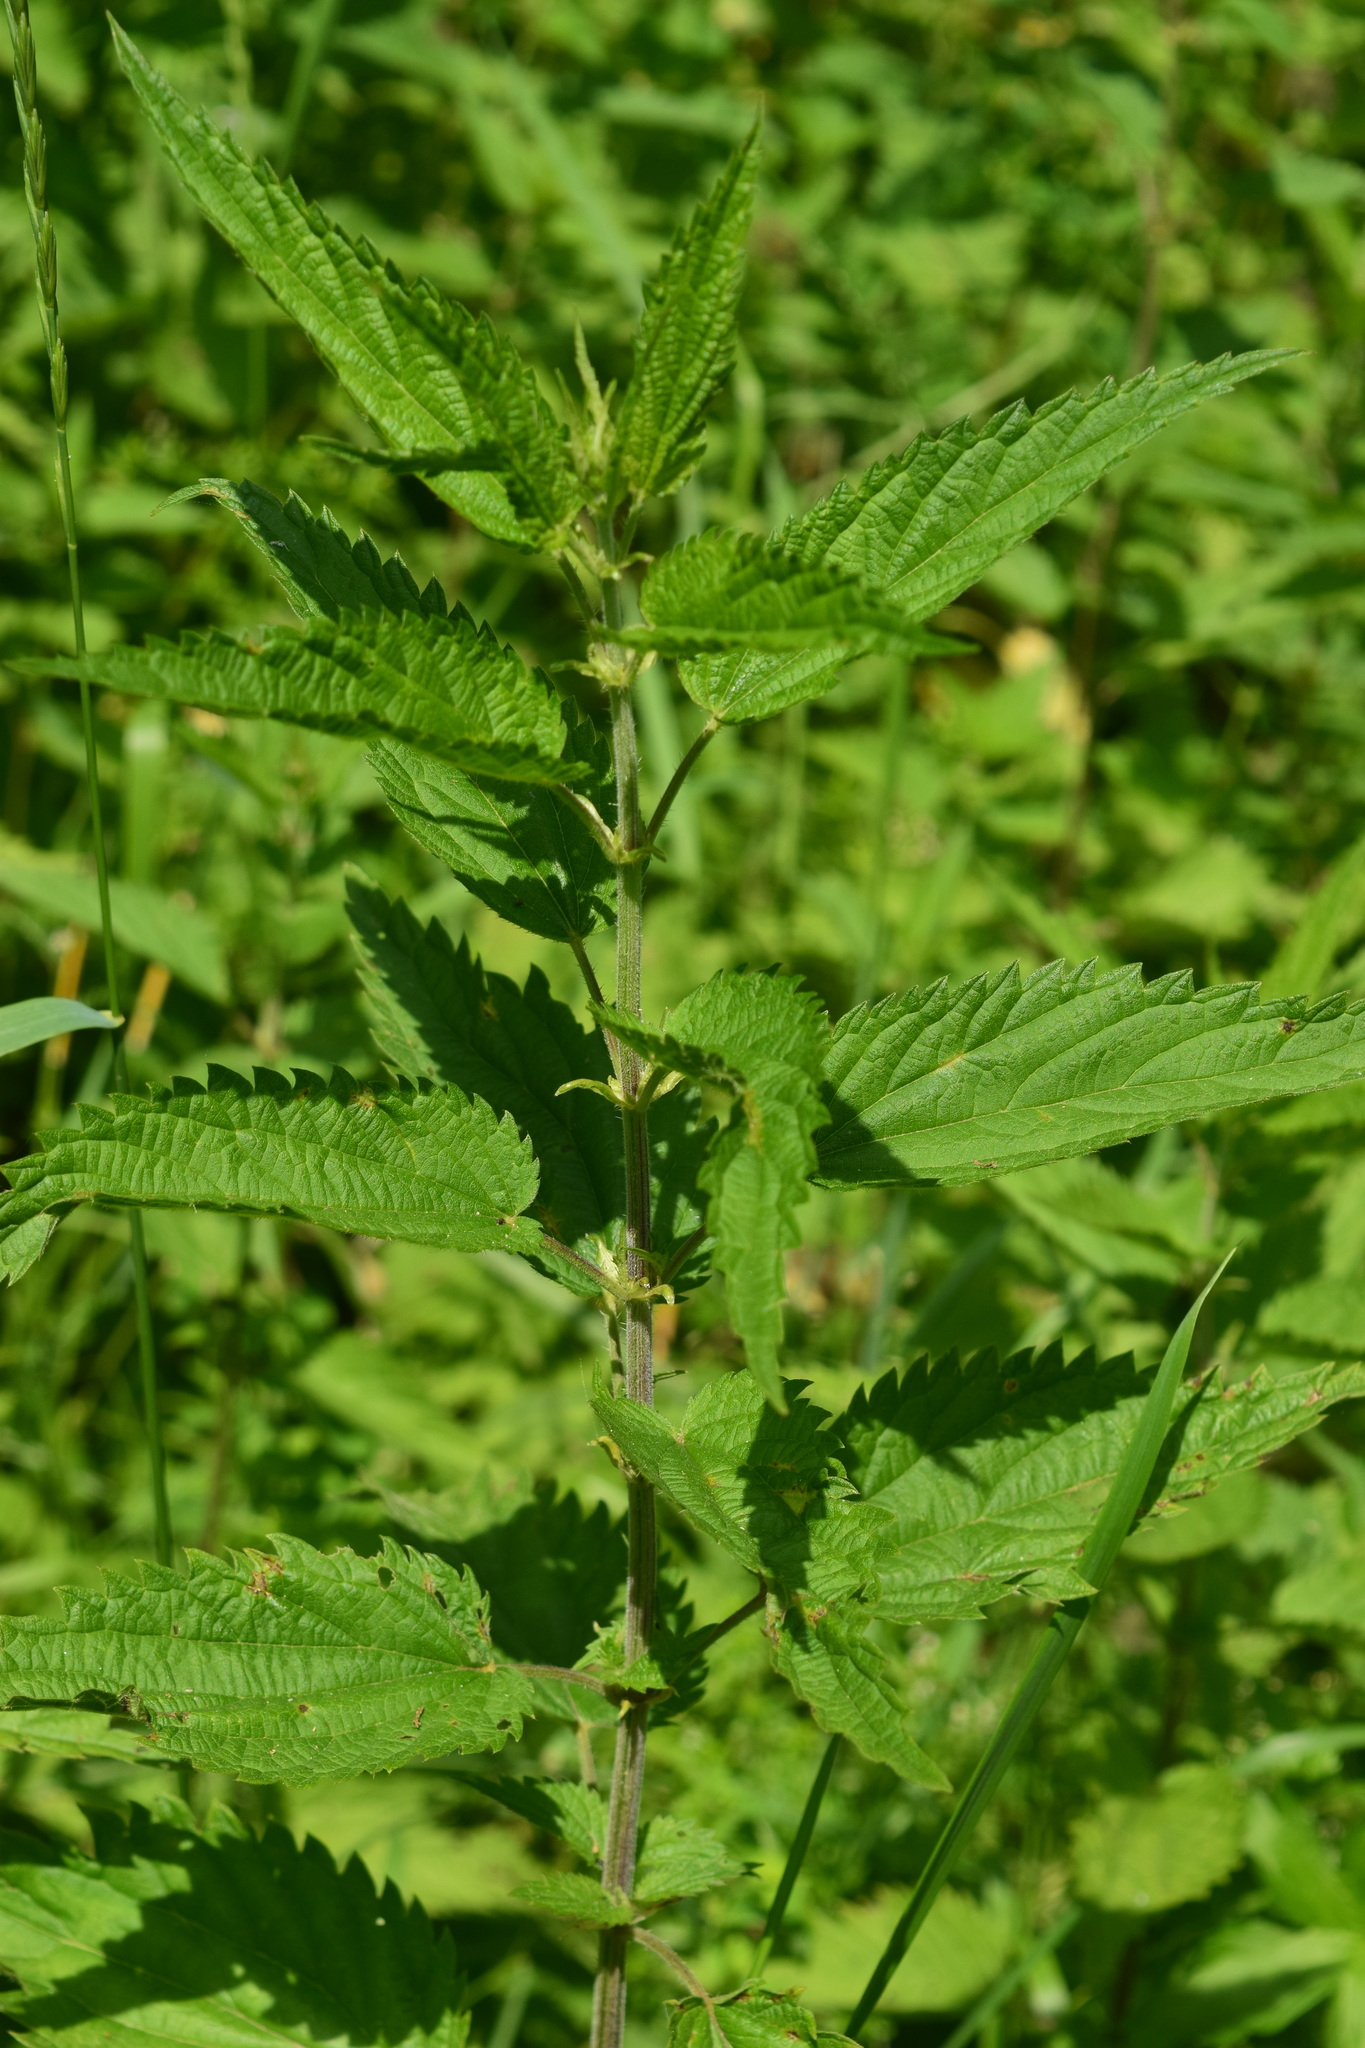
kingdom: Plantae
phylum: Tracheophyta
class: Magnoliopsida
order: Rosales
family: Urticaceae
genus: Urtica
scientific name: Urtica dioica
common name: Common nettle
